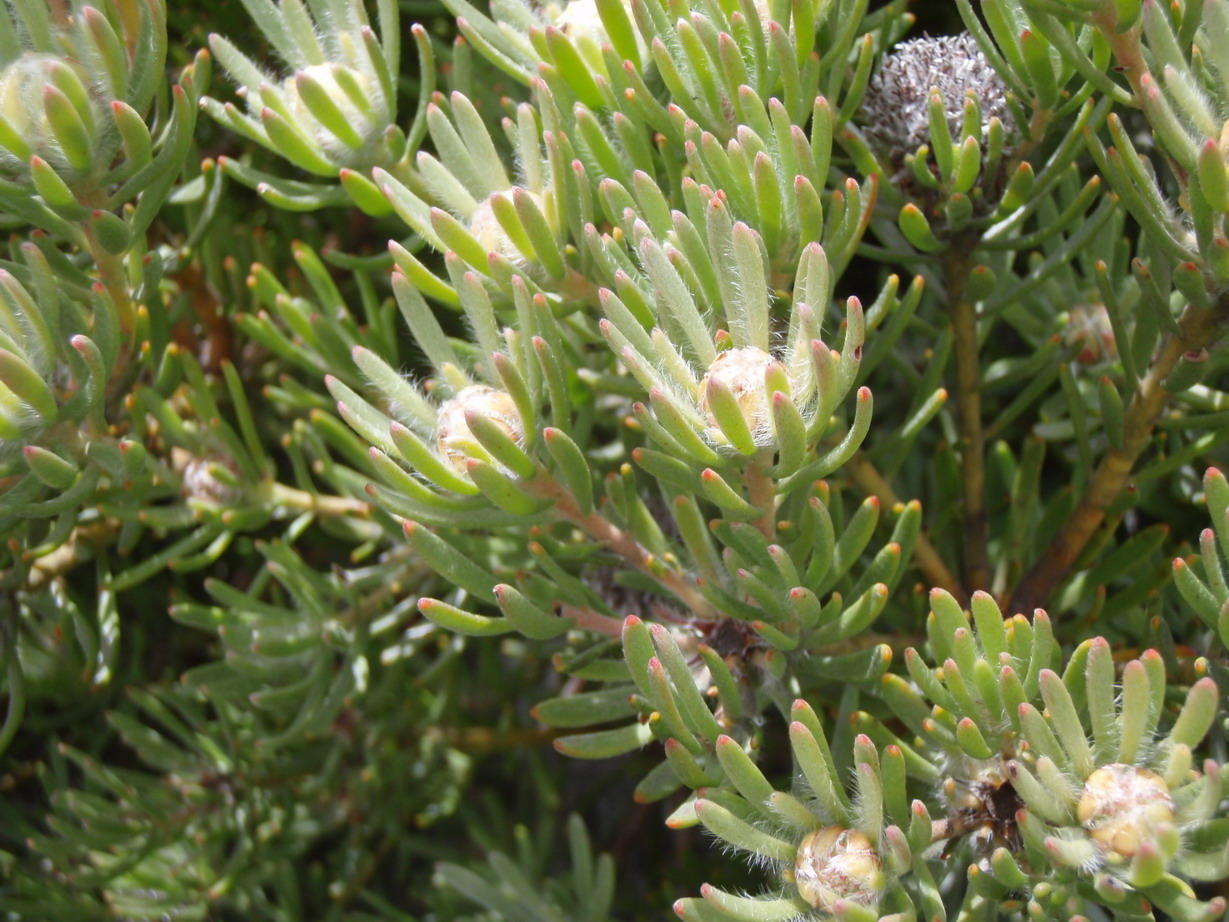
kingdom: Plantae
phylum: Tracheophyta
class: Magnoliopsida
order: Proteales
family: Proteaceae
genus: Leucadendron
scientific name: Leucadendron dregei
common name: Summit conebush
